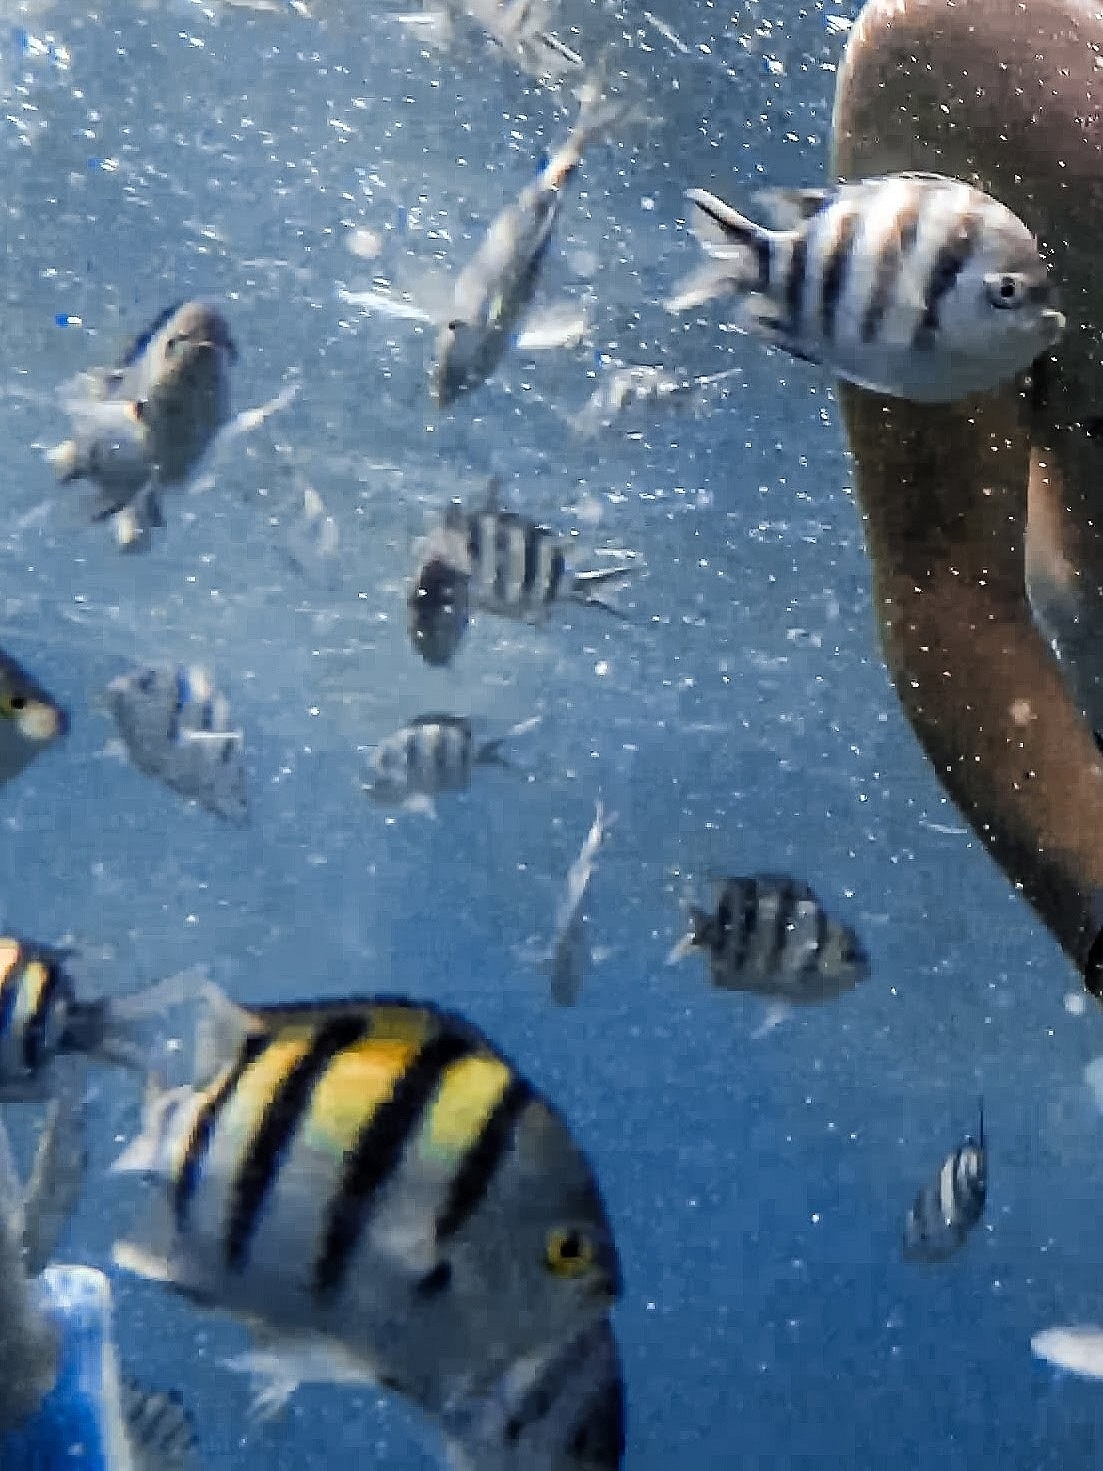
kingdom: Animalia
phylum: Chordata
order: Perciformes
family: Pomacentridae
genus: Abudefduf
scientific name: Abudefduf vaigiensis
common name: Indo-pacific sergeant
